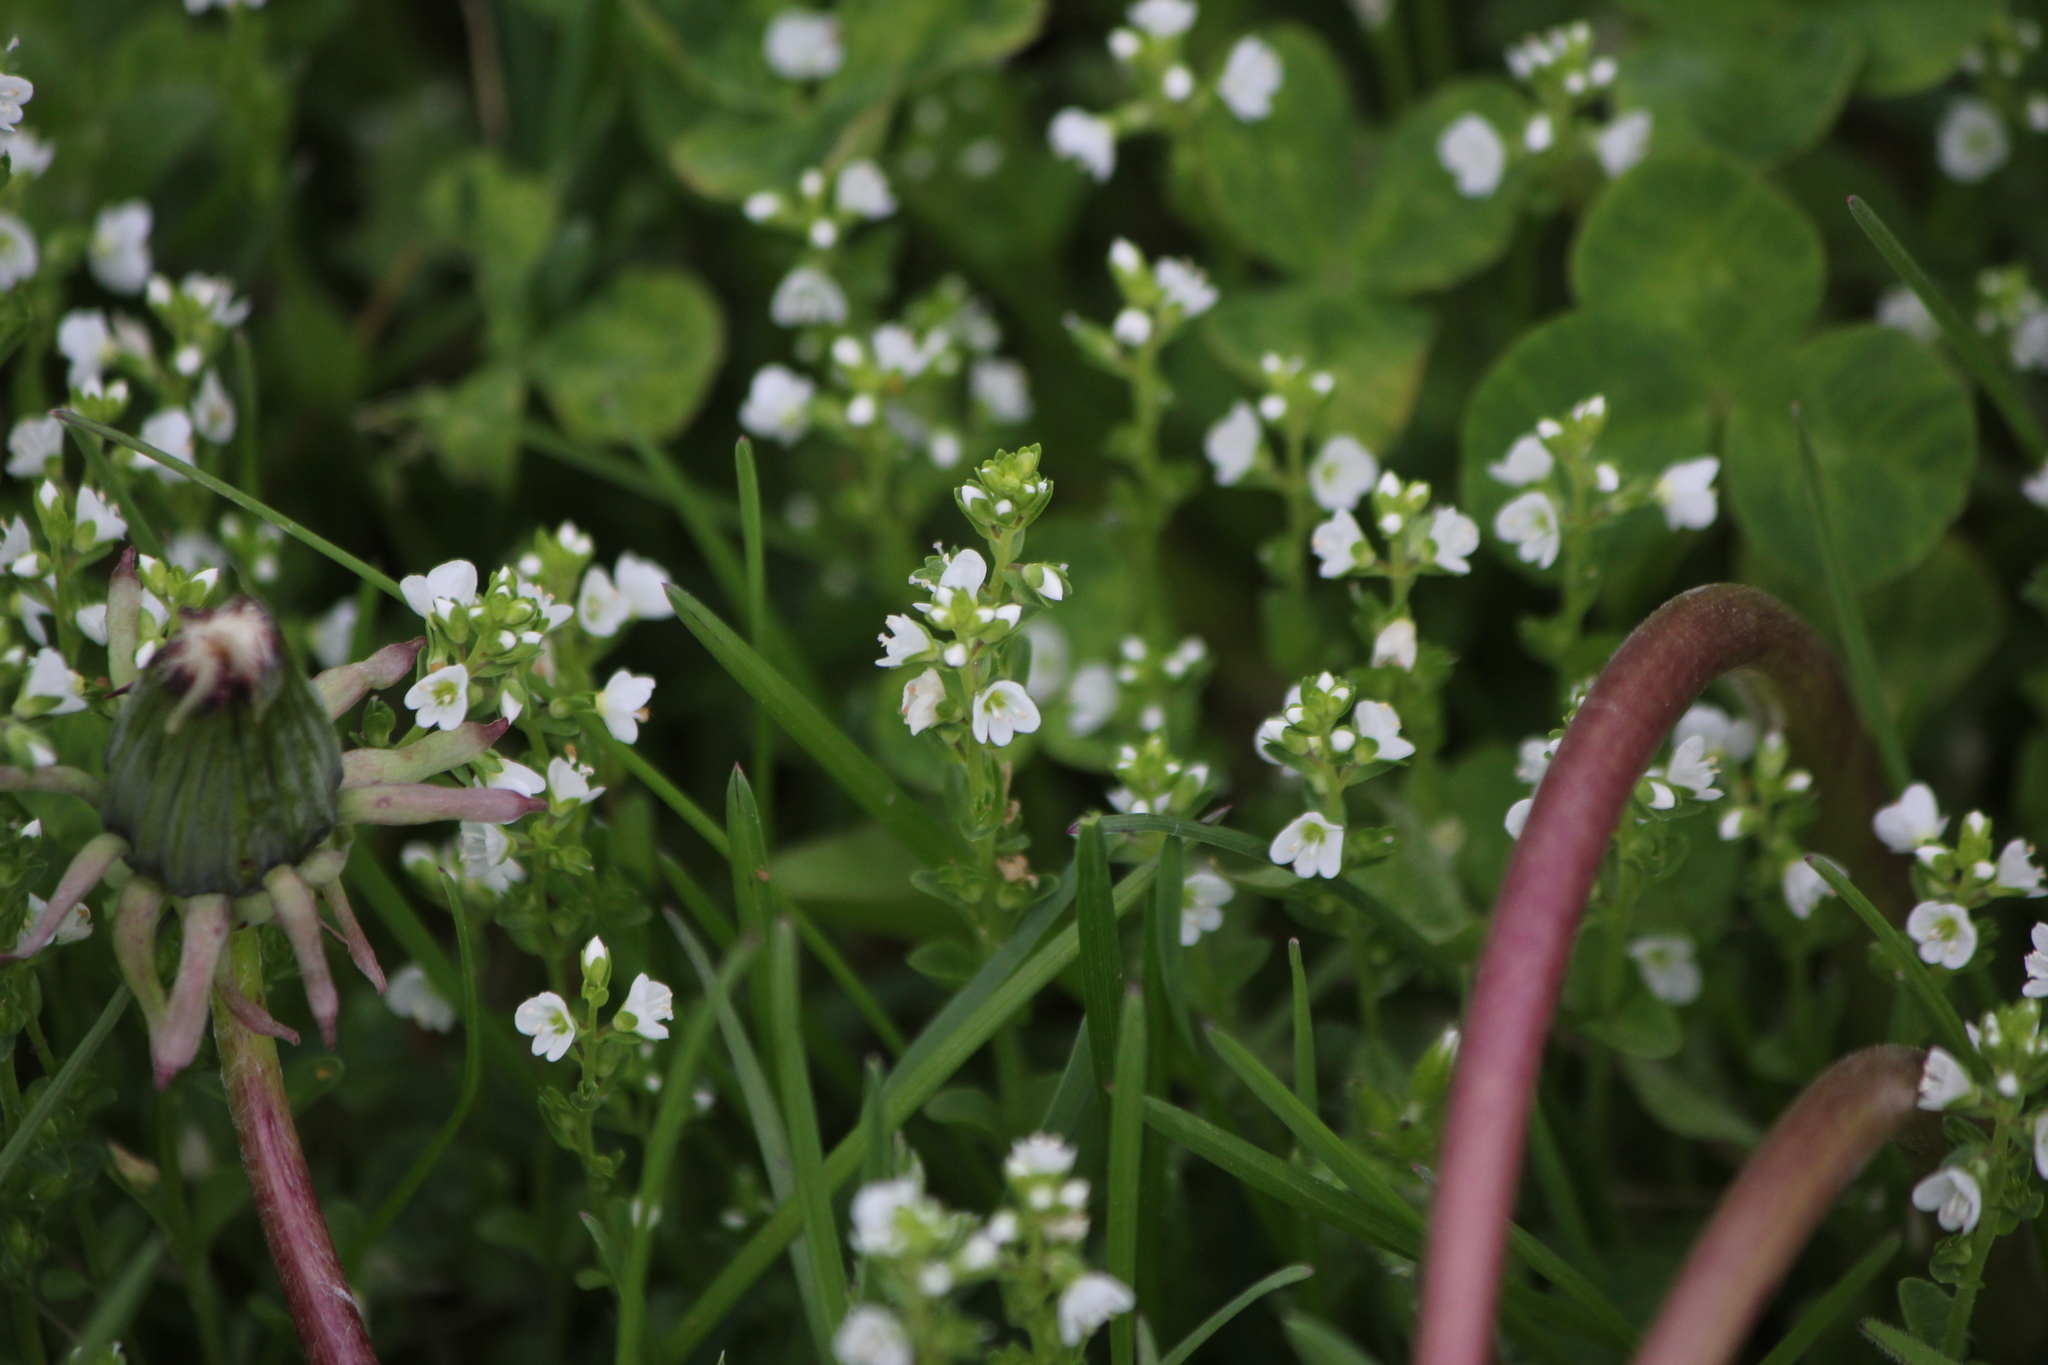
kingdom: Plantae
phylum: Tracheophyta
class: Magnoliopsida
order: Lamiales
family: Plantaginaceae
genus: Veronica
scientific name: Veronica serpyllifolia
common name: Thyme-leaved speedwell
